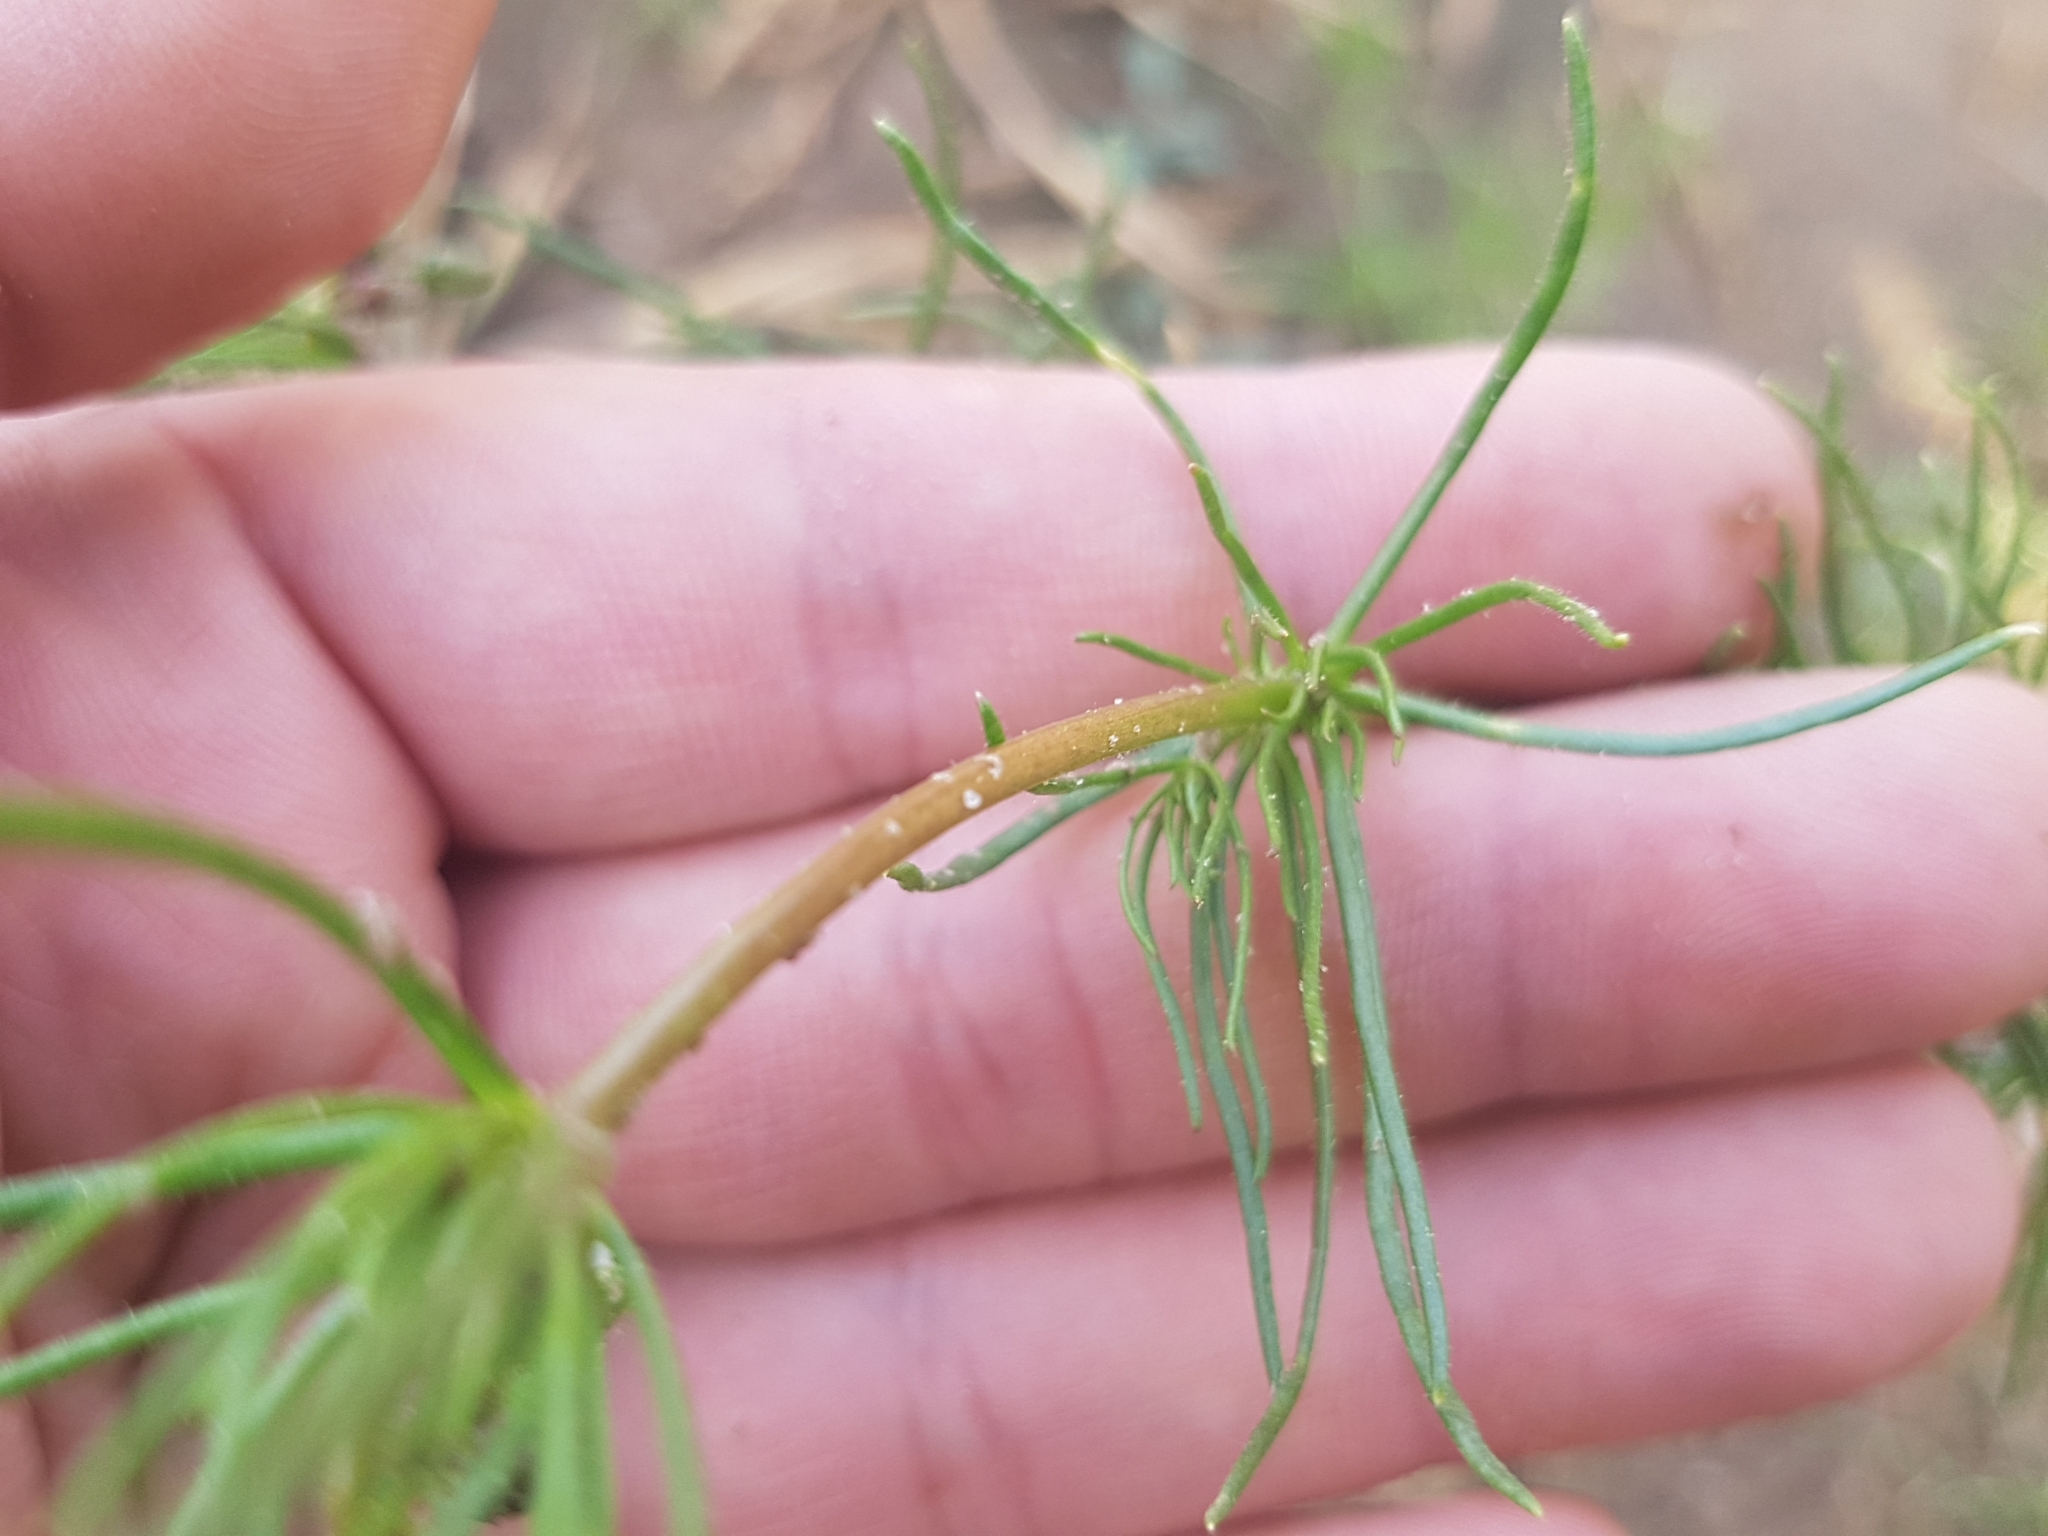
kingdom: Plantae
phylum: Tracheophyta
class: Magnoliopsida
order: Caryophyllales
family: Caryophyllaceae
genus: Spergula
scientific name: Spergula arvensis
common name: Corn spurrey
